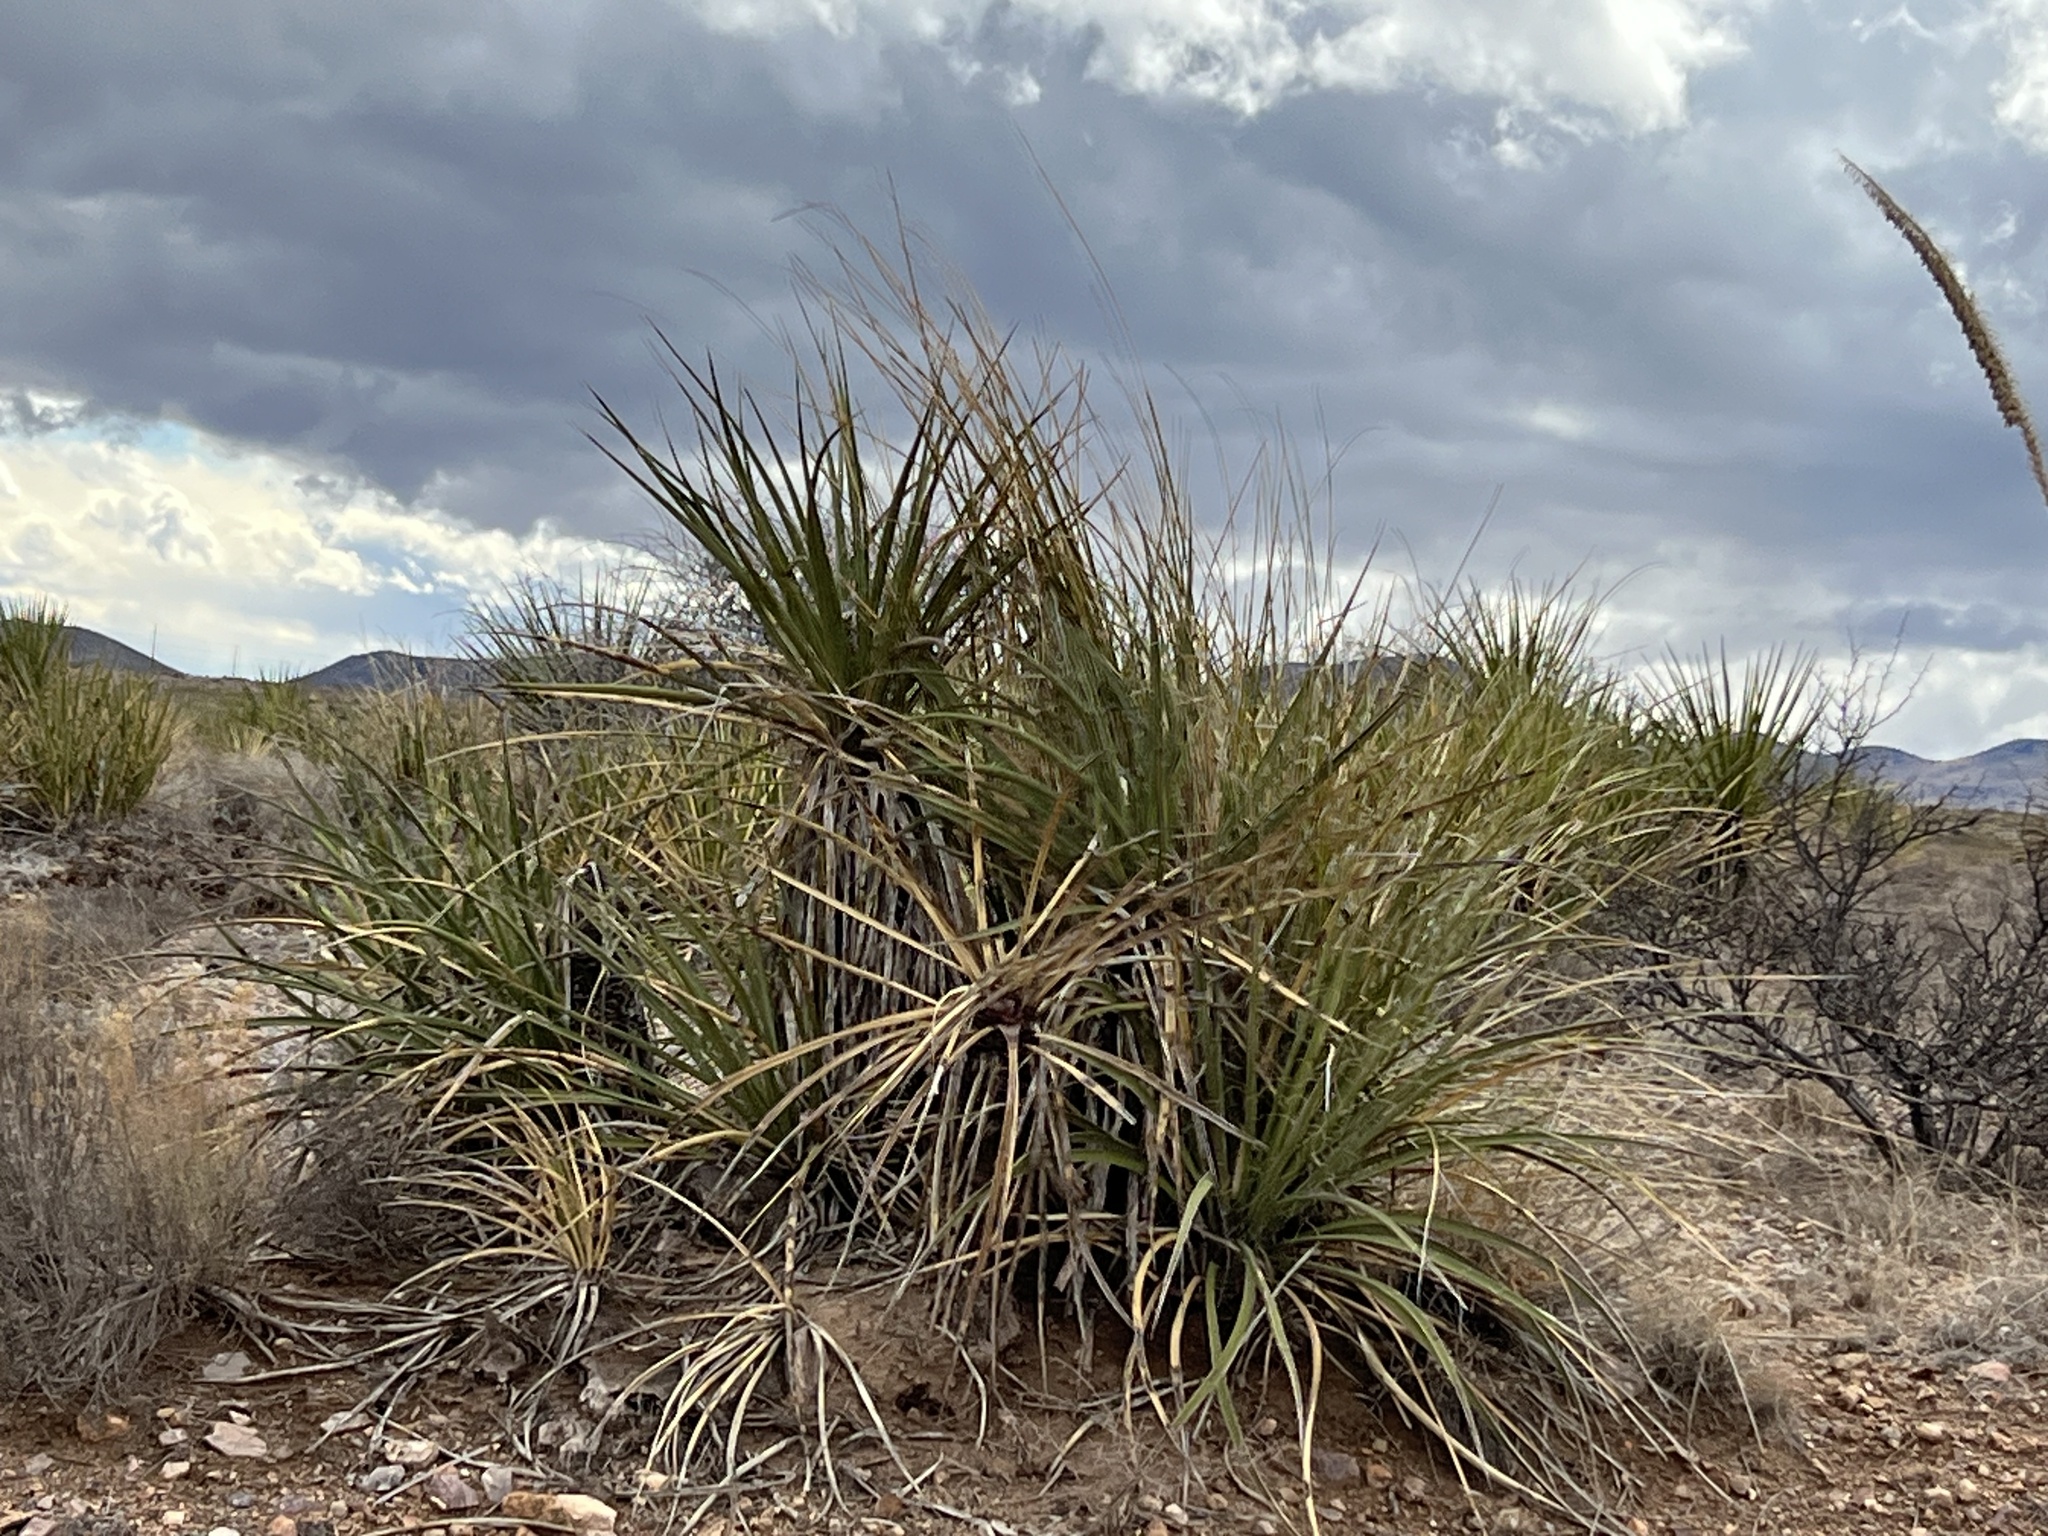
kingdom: Plantae
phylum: Tracheophyta
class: Liliopsida
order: Asparagales
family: Asparagaceae
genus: Yucca
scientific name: Yucca baccata
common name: Banana yucca
